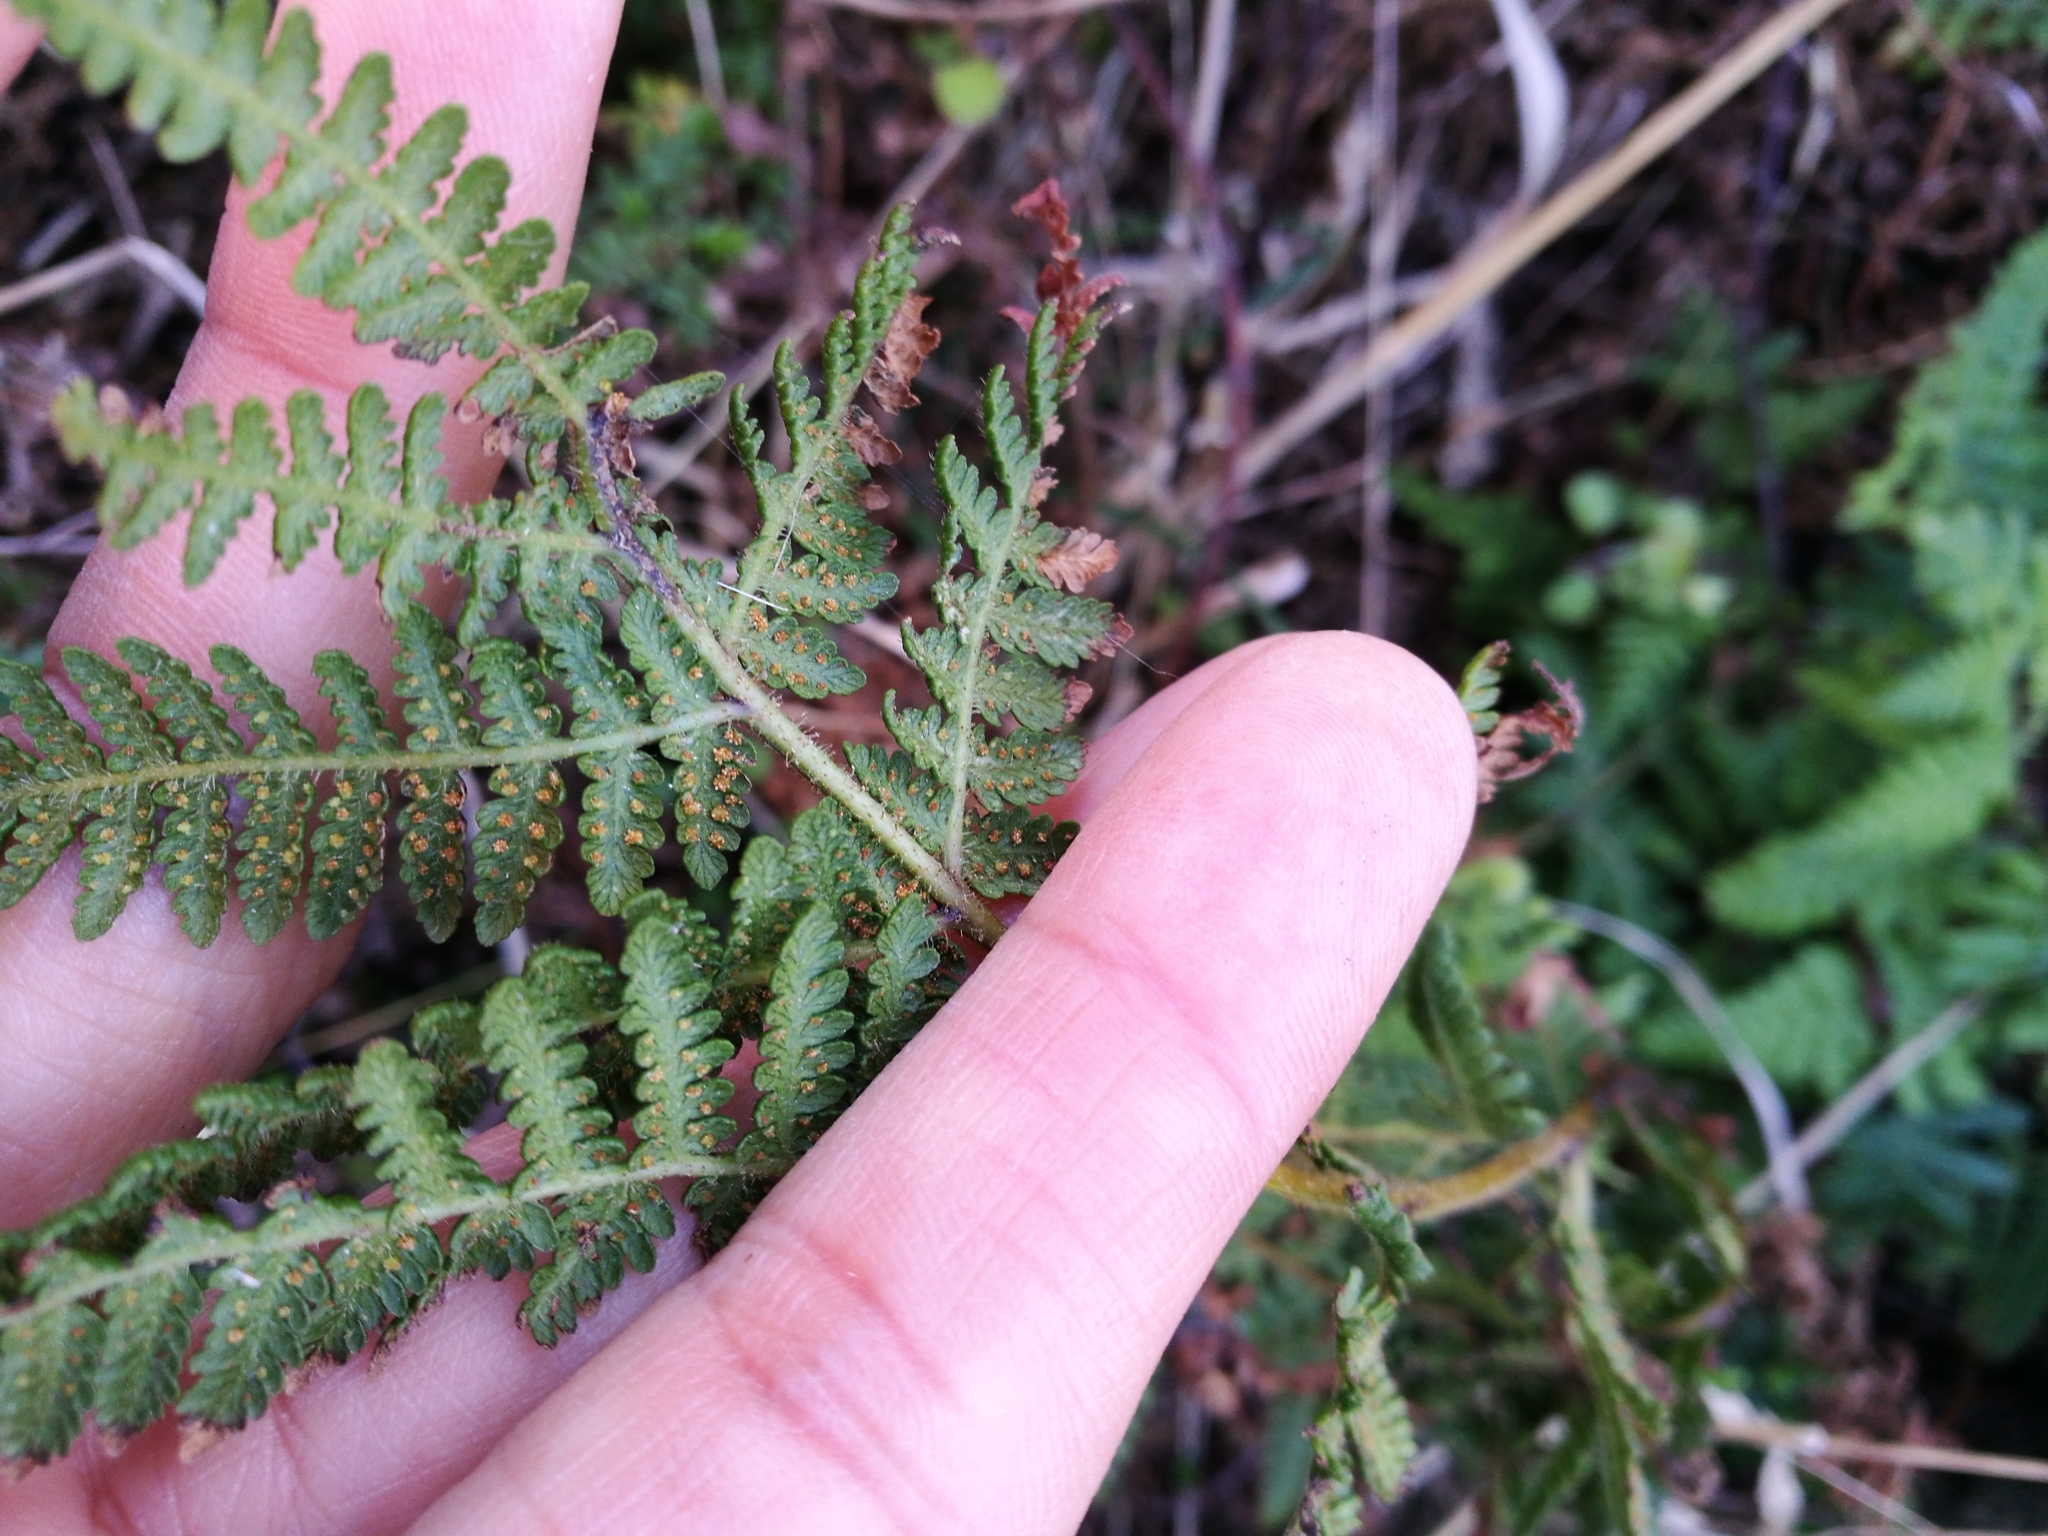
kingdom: Plantae
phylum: Tracheophyta
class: Polypodiopsida
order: Polypodiales
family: Dennstaedtiaceae
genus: Hypolepis
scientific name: Hypolepis ambigua
